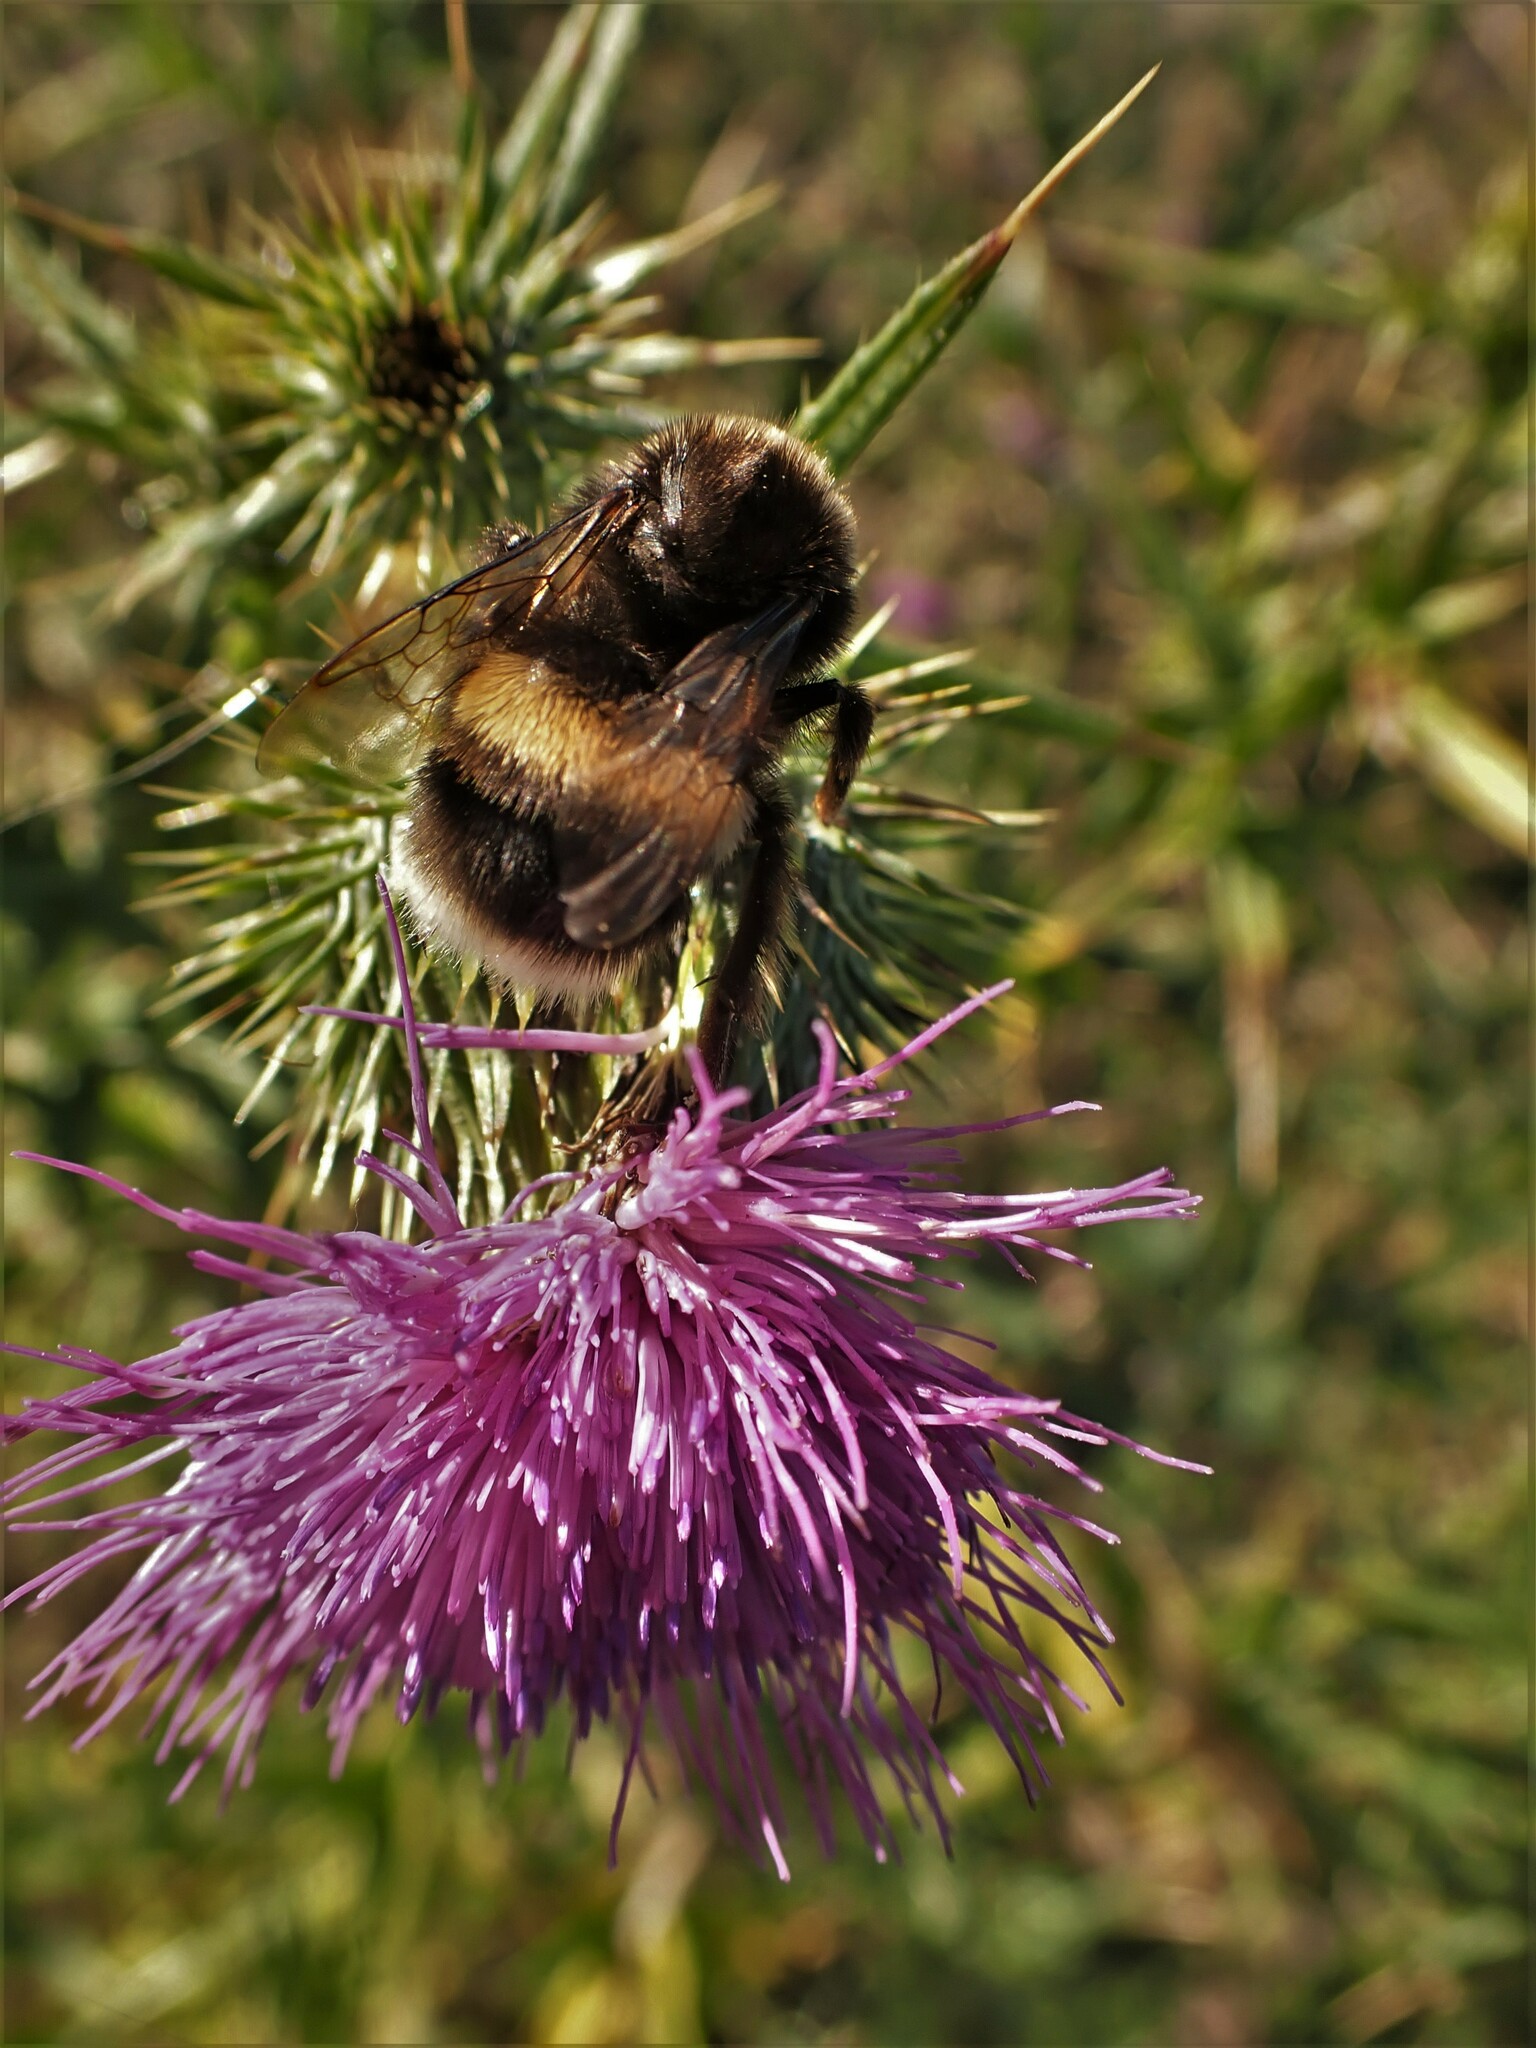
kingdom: Animalia
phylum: Arthropoda
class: Insecta
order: Hymenoptera
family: Apidae
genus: Bombus
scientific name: Bombus terrestris
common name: Buff-tailed bumblebee
